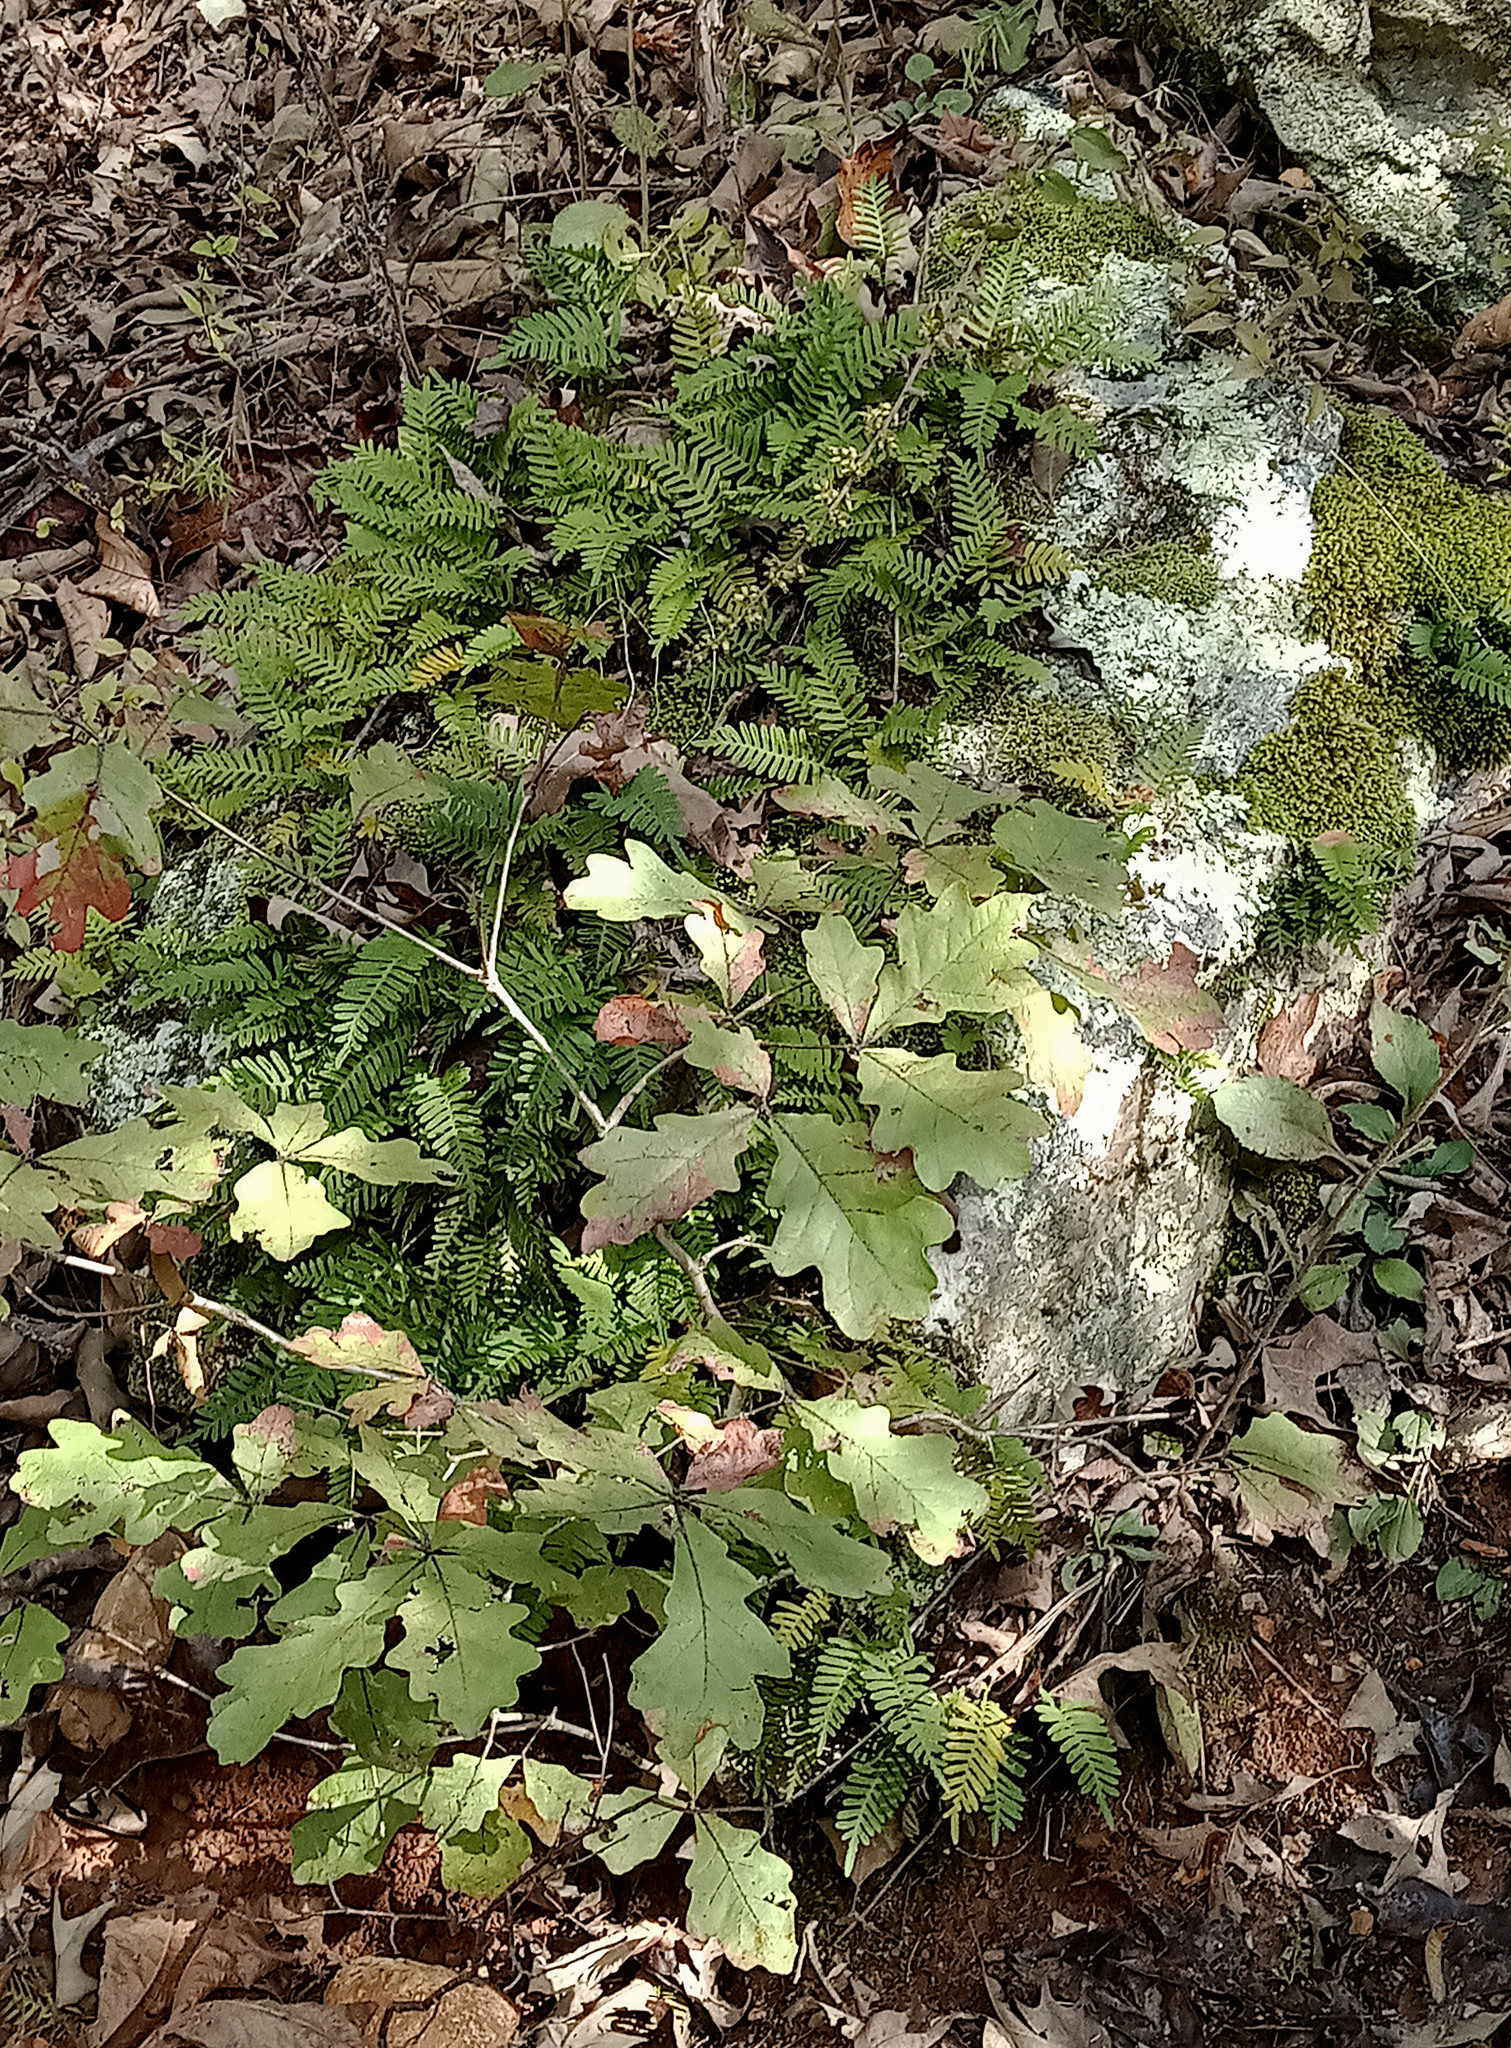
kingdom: Plantae
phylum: Tracheophyta
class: Polypodiopsida
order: Polypodiales
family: Polypodiaceae
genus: Pleopeltis
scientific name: Pleopeltis michauxiana
